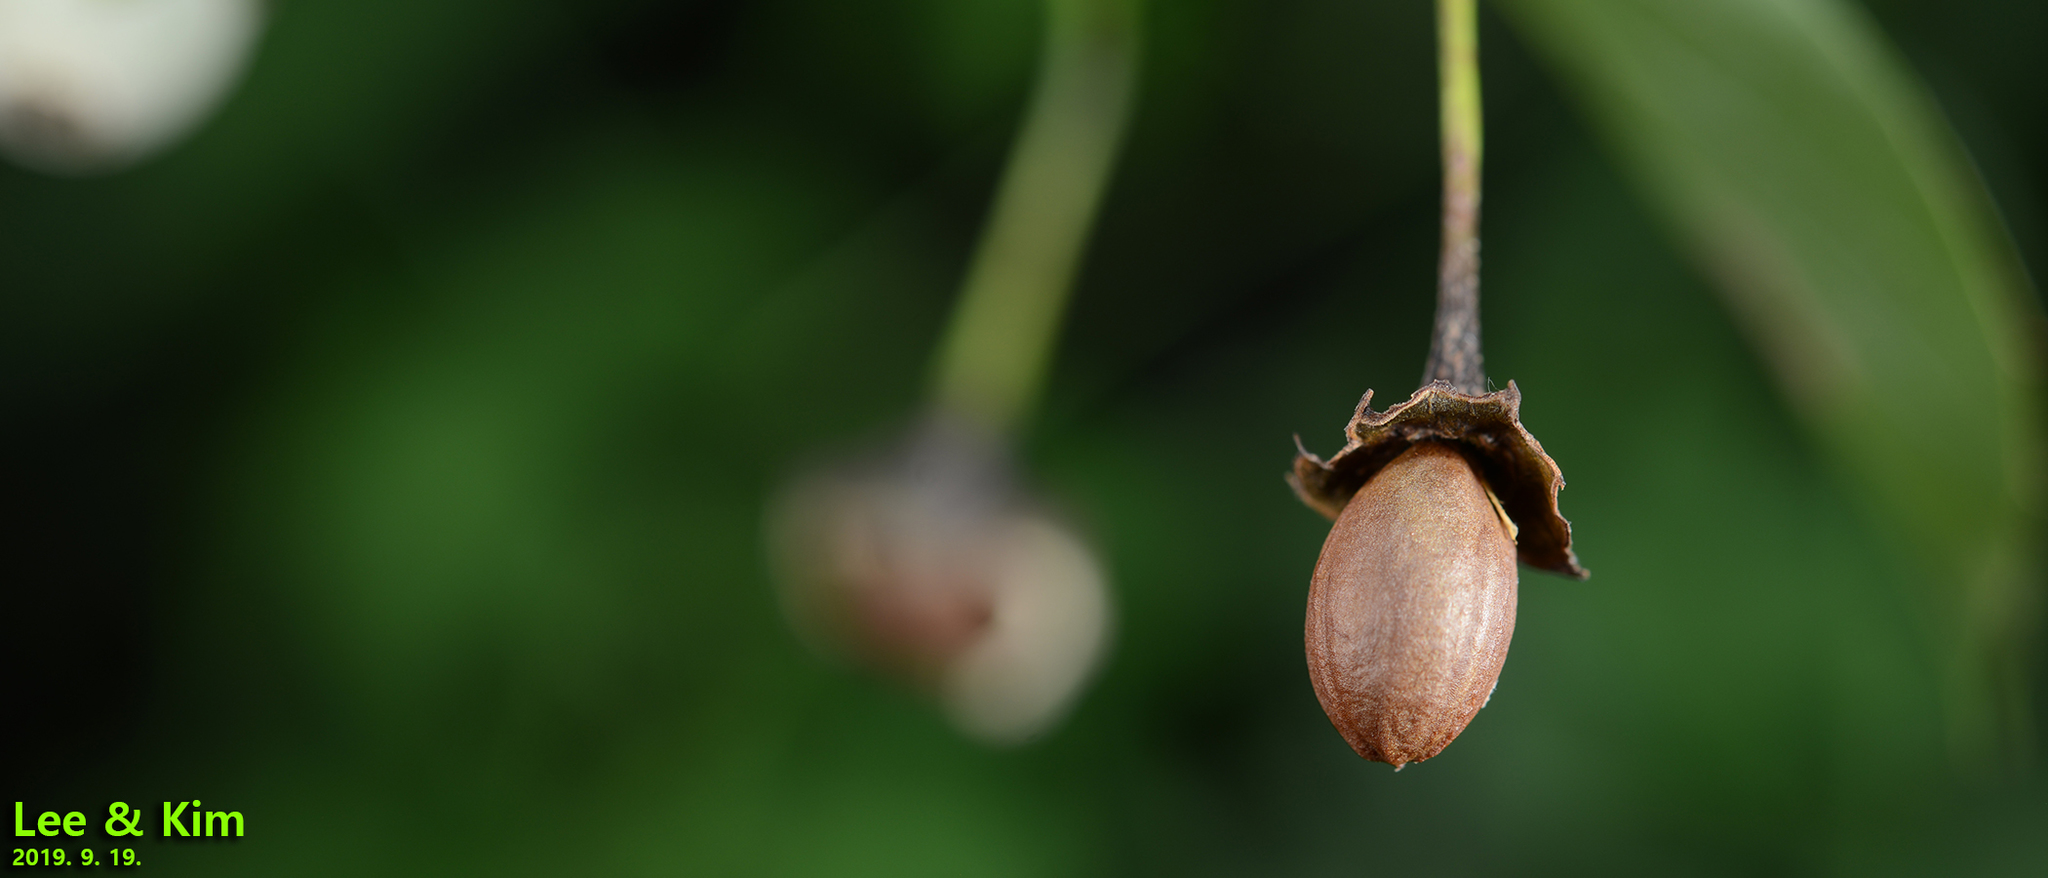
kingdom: Plantae
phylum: Tracheophyta
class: Magnoliopsida
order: Ericales
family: Styracaceae
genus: Styrax
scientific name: Styrax japonicus
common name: Japanese snowbell
